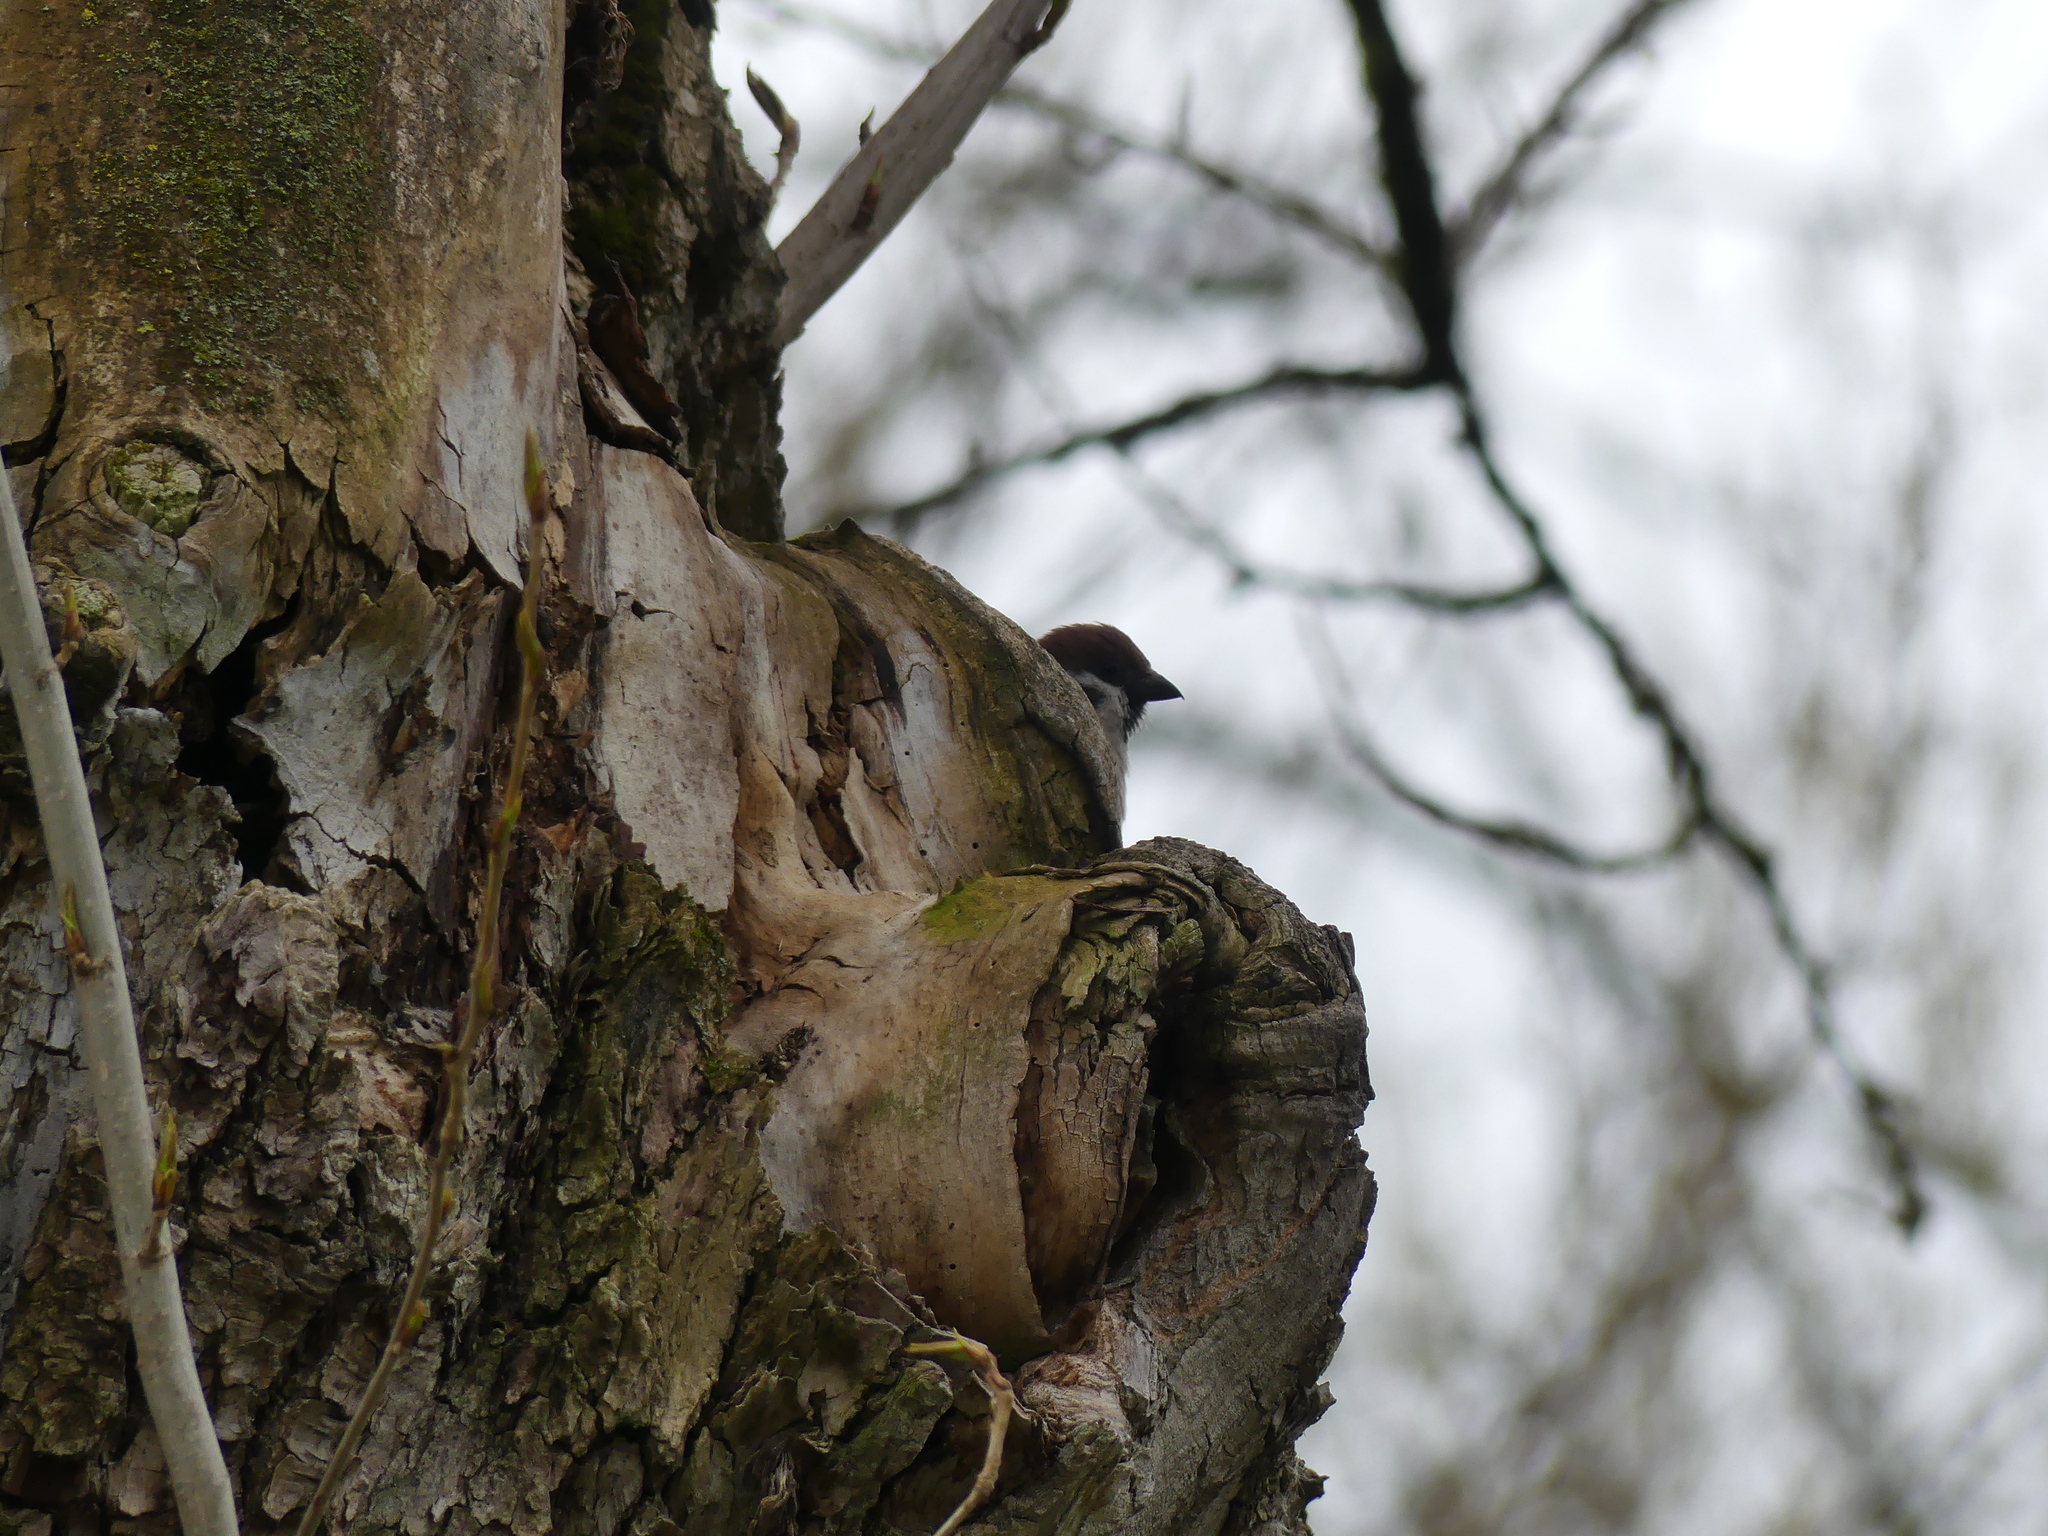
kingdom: Animalia
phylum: Chordata
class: Aves
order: Passeriformes
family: Passeridae
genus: Passer
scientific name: Passer montanus
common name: Eurasian tree sparrow
